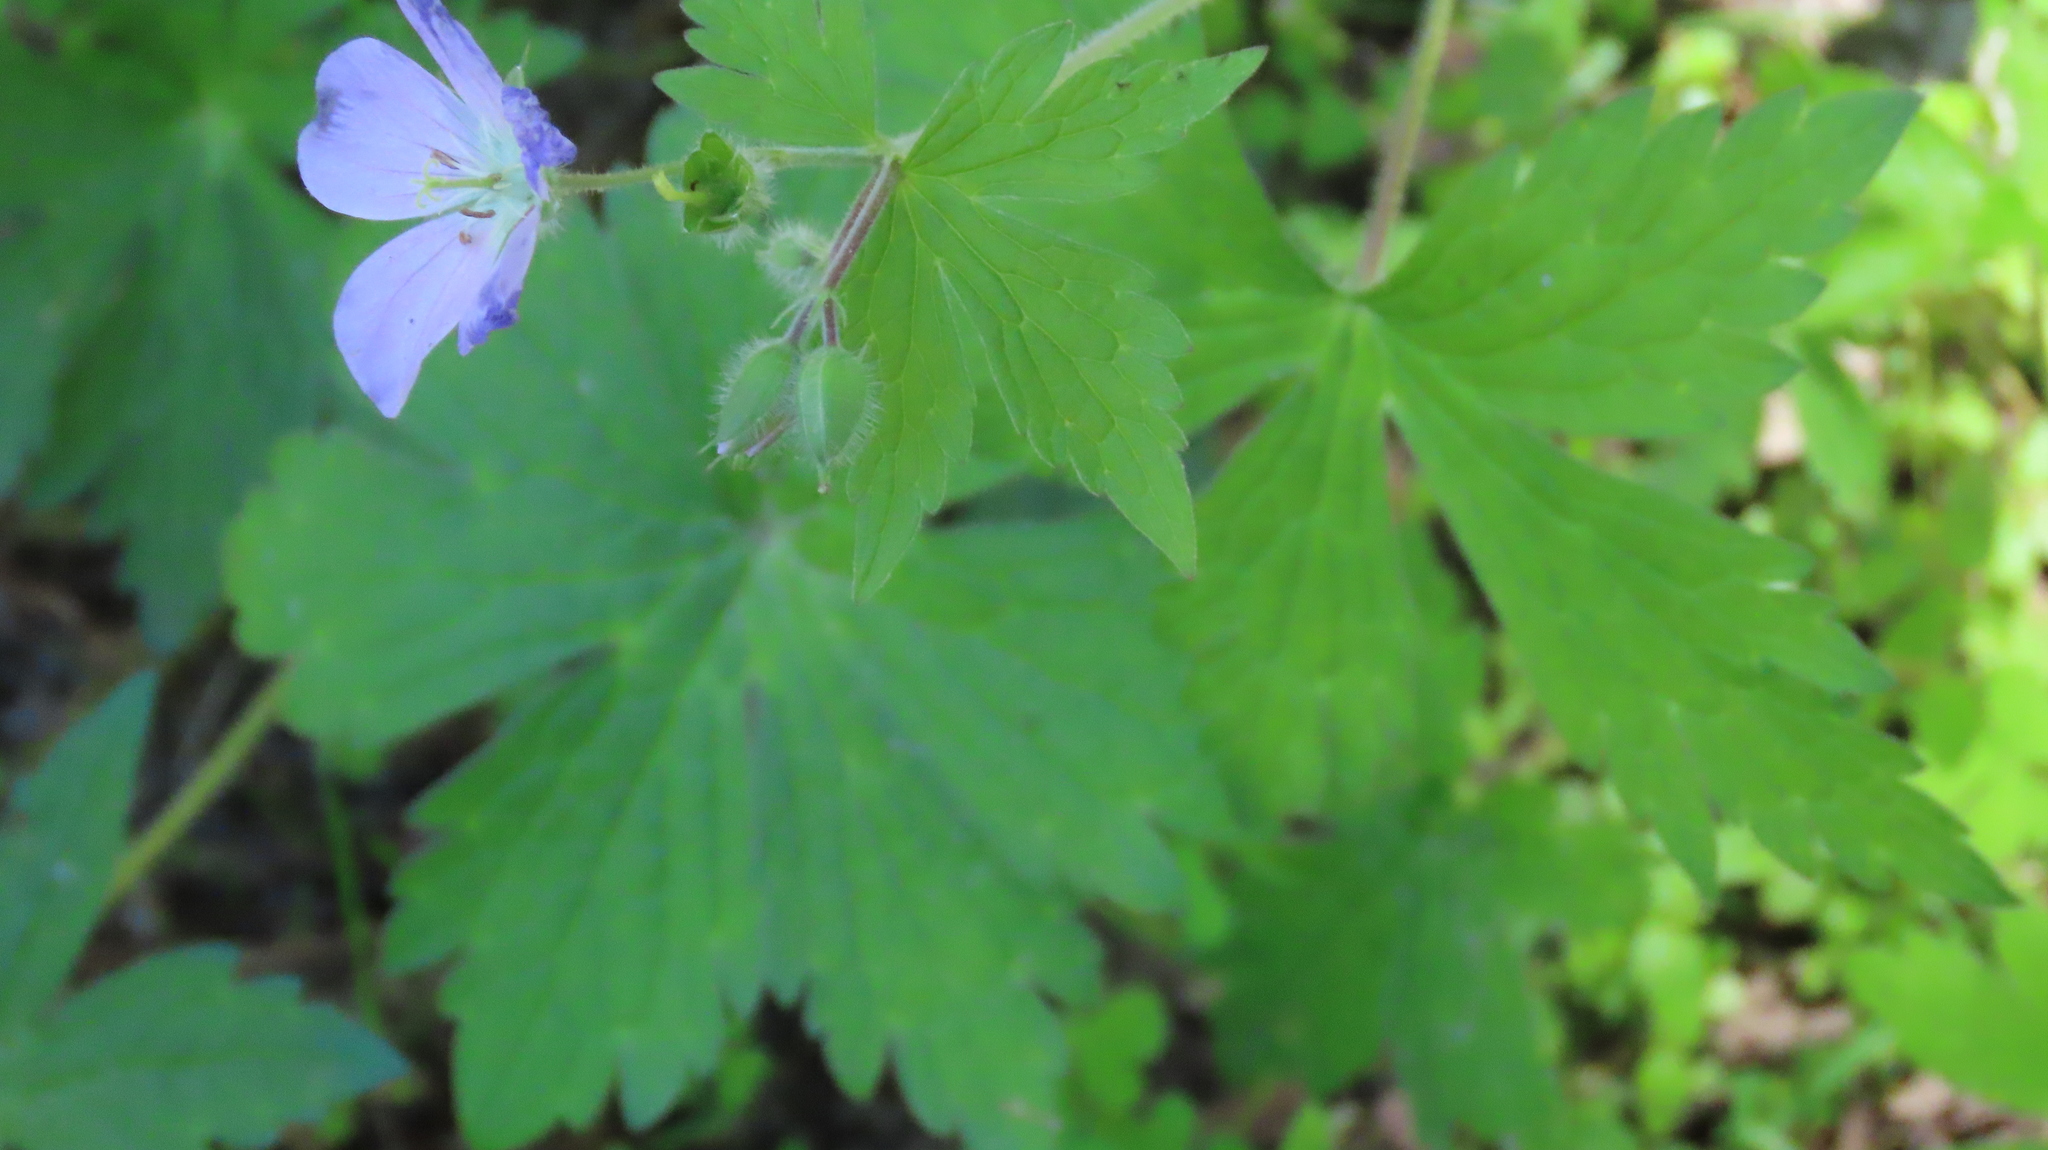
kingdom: Plantae
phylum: Tracheophyta
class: Magnoliopsida
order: Geraniales
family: Geraniaceae
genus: Geranium
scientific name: Geranium maculatum
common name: Spotted geranium
